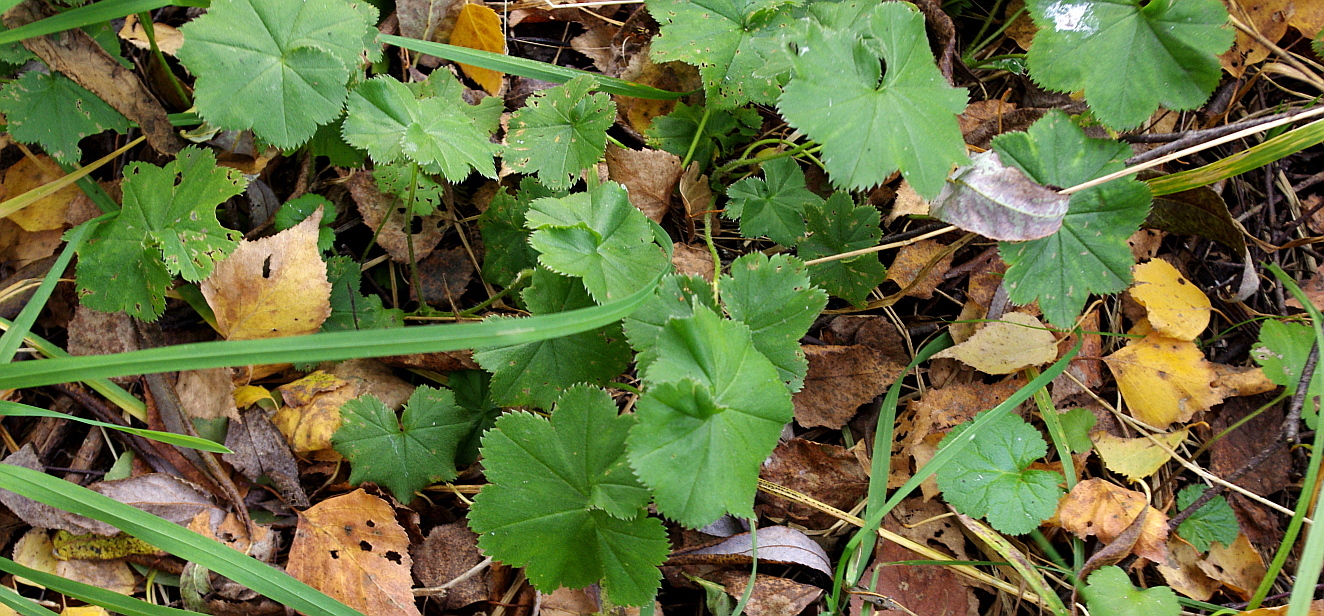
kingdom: Plantae
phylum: Tracheophyta
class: Magnoliopsida
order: Rosales
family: Rosaceae
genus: Alchemilla
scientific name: Alchemilla heptagona
